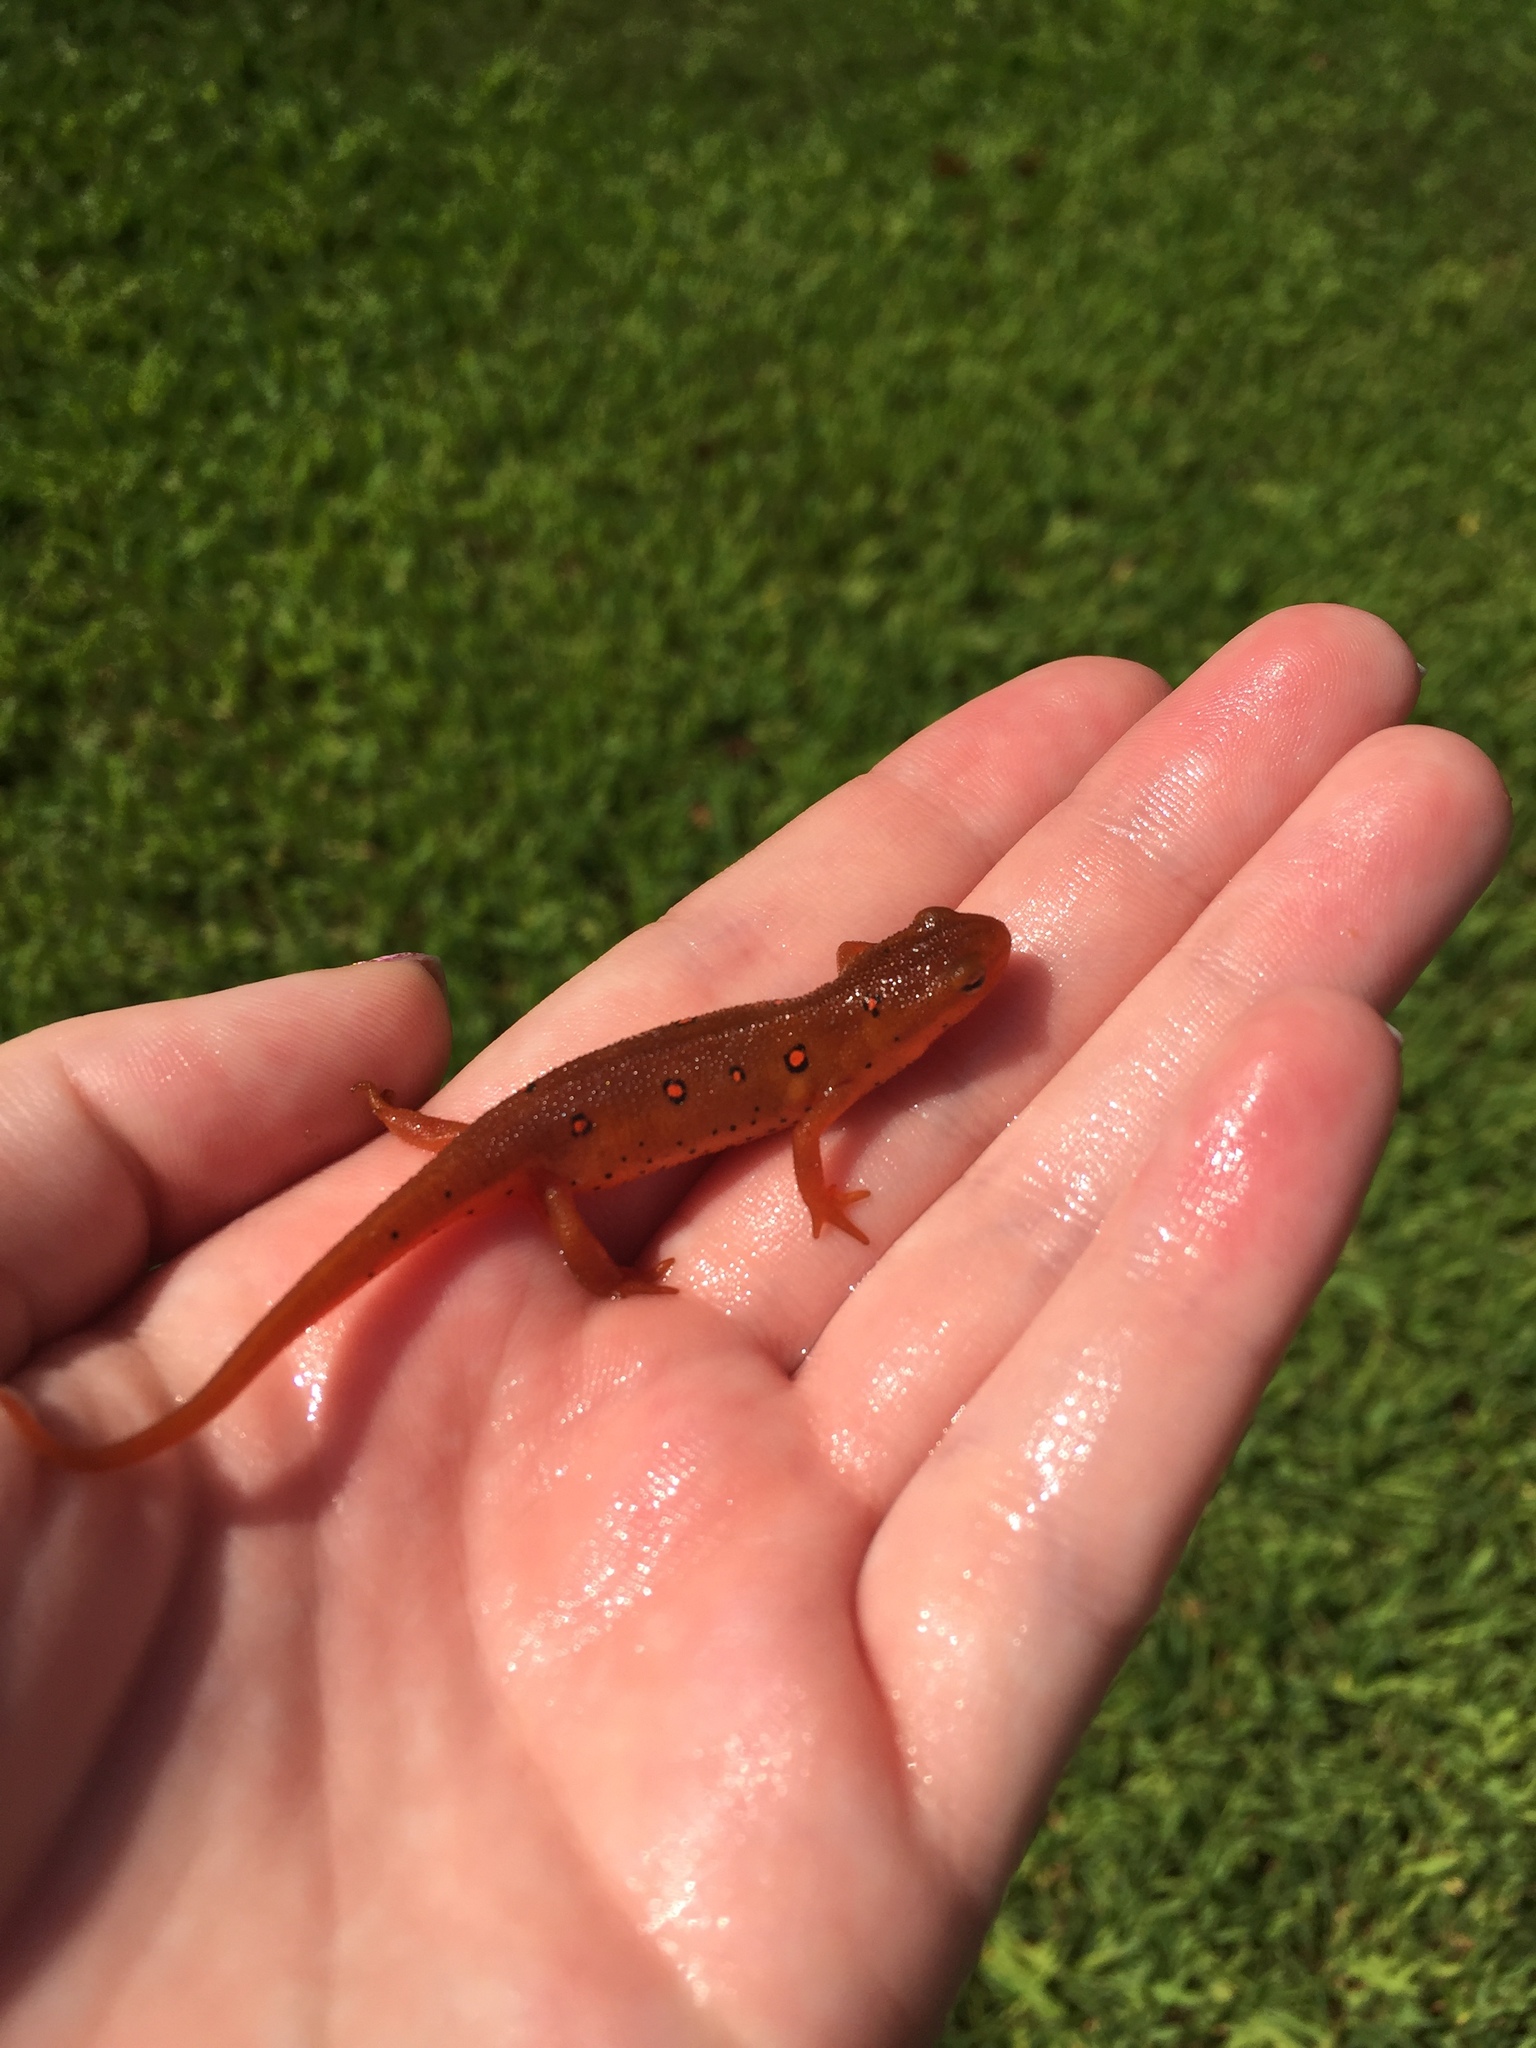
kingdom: Animalia
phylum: Chordata
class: Amphibia
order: Caudata
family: Salamandridae
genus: Notophthalmus
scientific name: Notophthalmus viridescens
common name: Eastern newt
